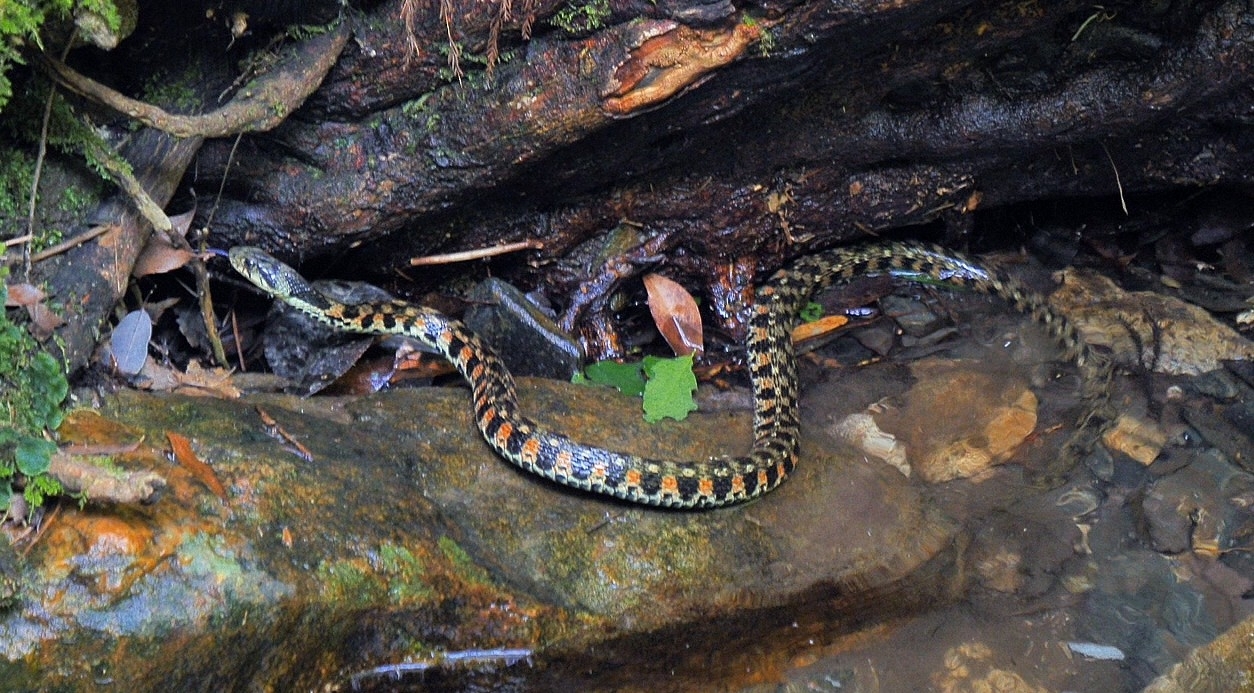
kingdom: Animalia
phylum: Chordata
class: Squamata
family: Colubridae
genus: Rhabdophis
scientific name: Rhabdophis tigrinus
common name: Tiger keelback
